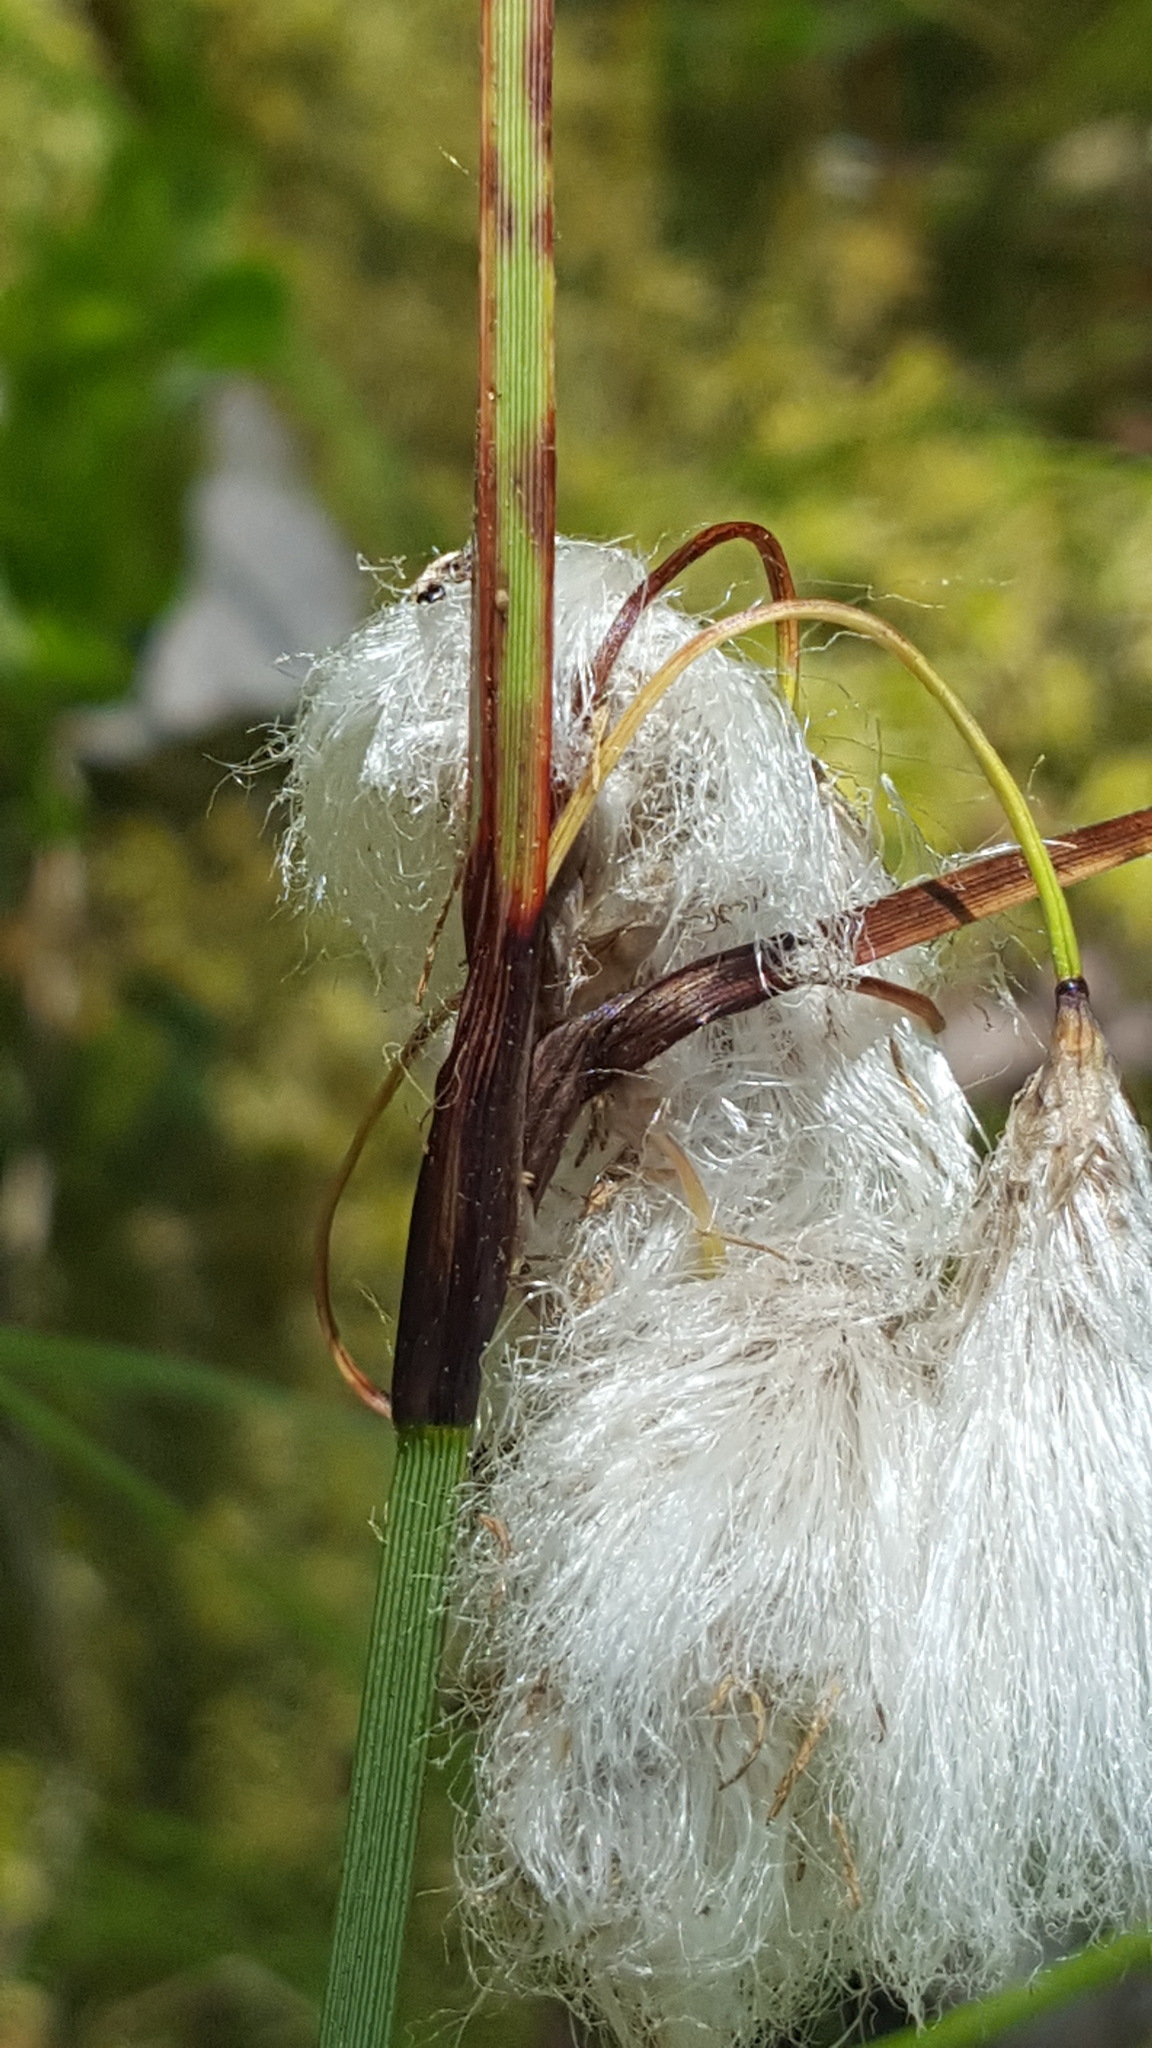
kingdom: Plantae
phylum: Tracheophyta
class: Liliopsida
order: Poales
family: Cyperaceae
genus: Eriophorum
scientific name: Eriophorum angustifolium
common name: Common cottongrass
